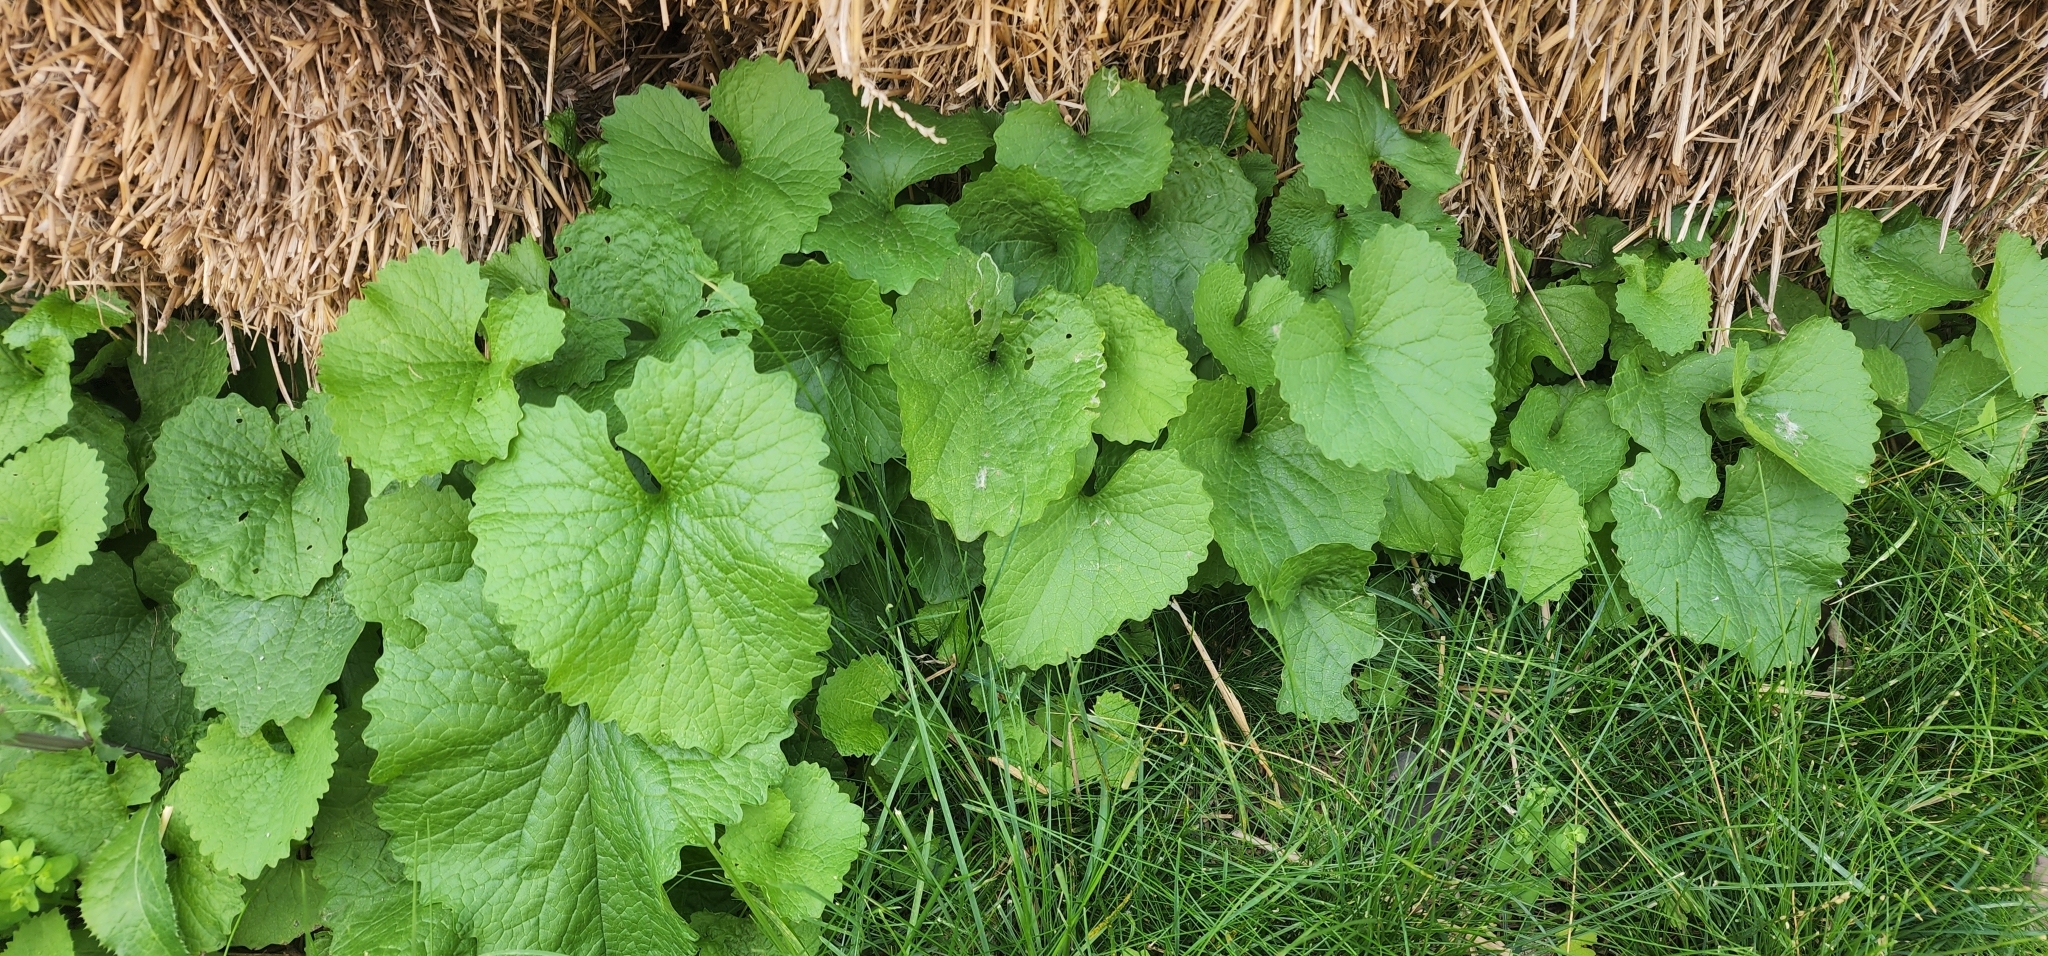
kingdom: Plantae
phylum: Tracheophyta
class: Magnoliopsida
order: Brassicales
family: Brassicaceae
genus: Alliaria
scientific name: Alliaria petiolata
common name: Garlic mustard
